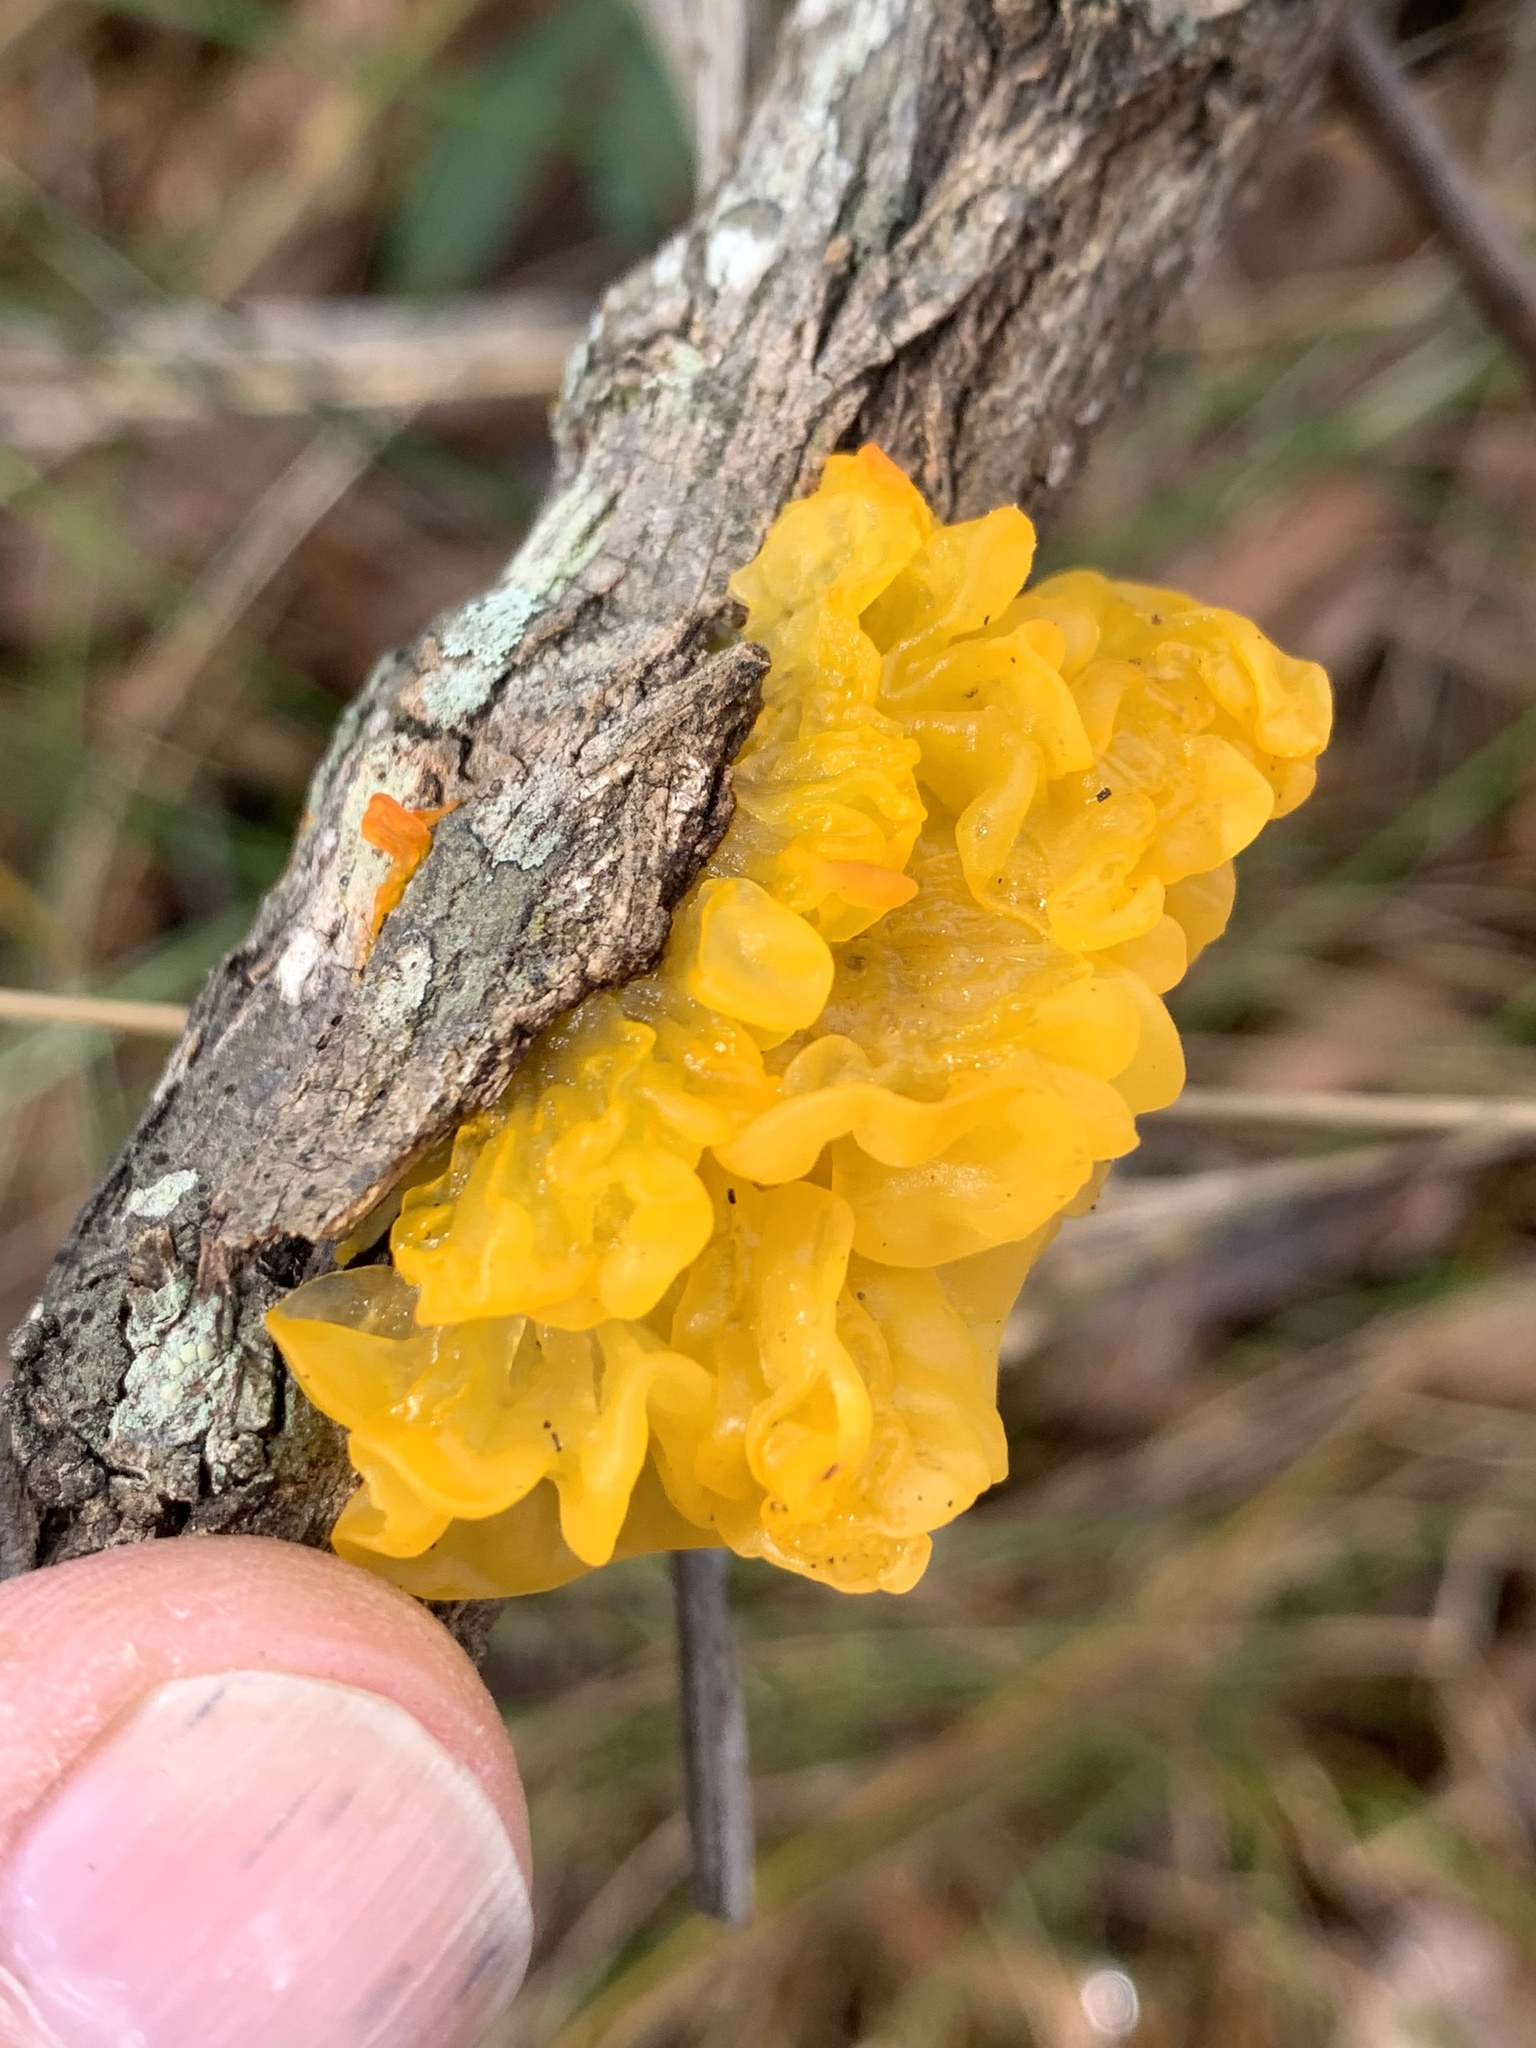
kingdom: Fungi
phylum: Basidiomycota
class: Tremellomycetes
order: Tremellales
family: Tremellaceae
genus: Tremella
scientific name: Tremella mesenterica
